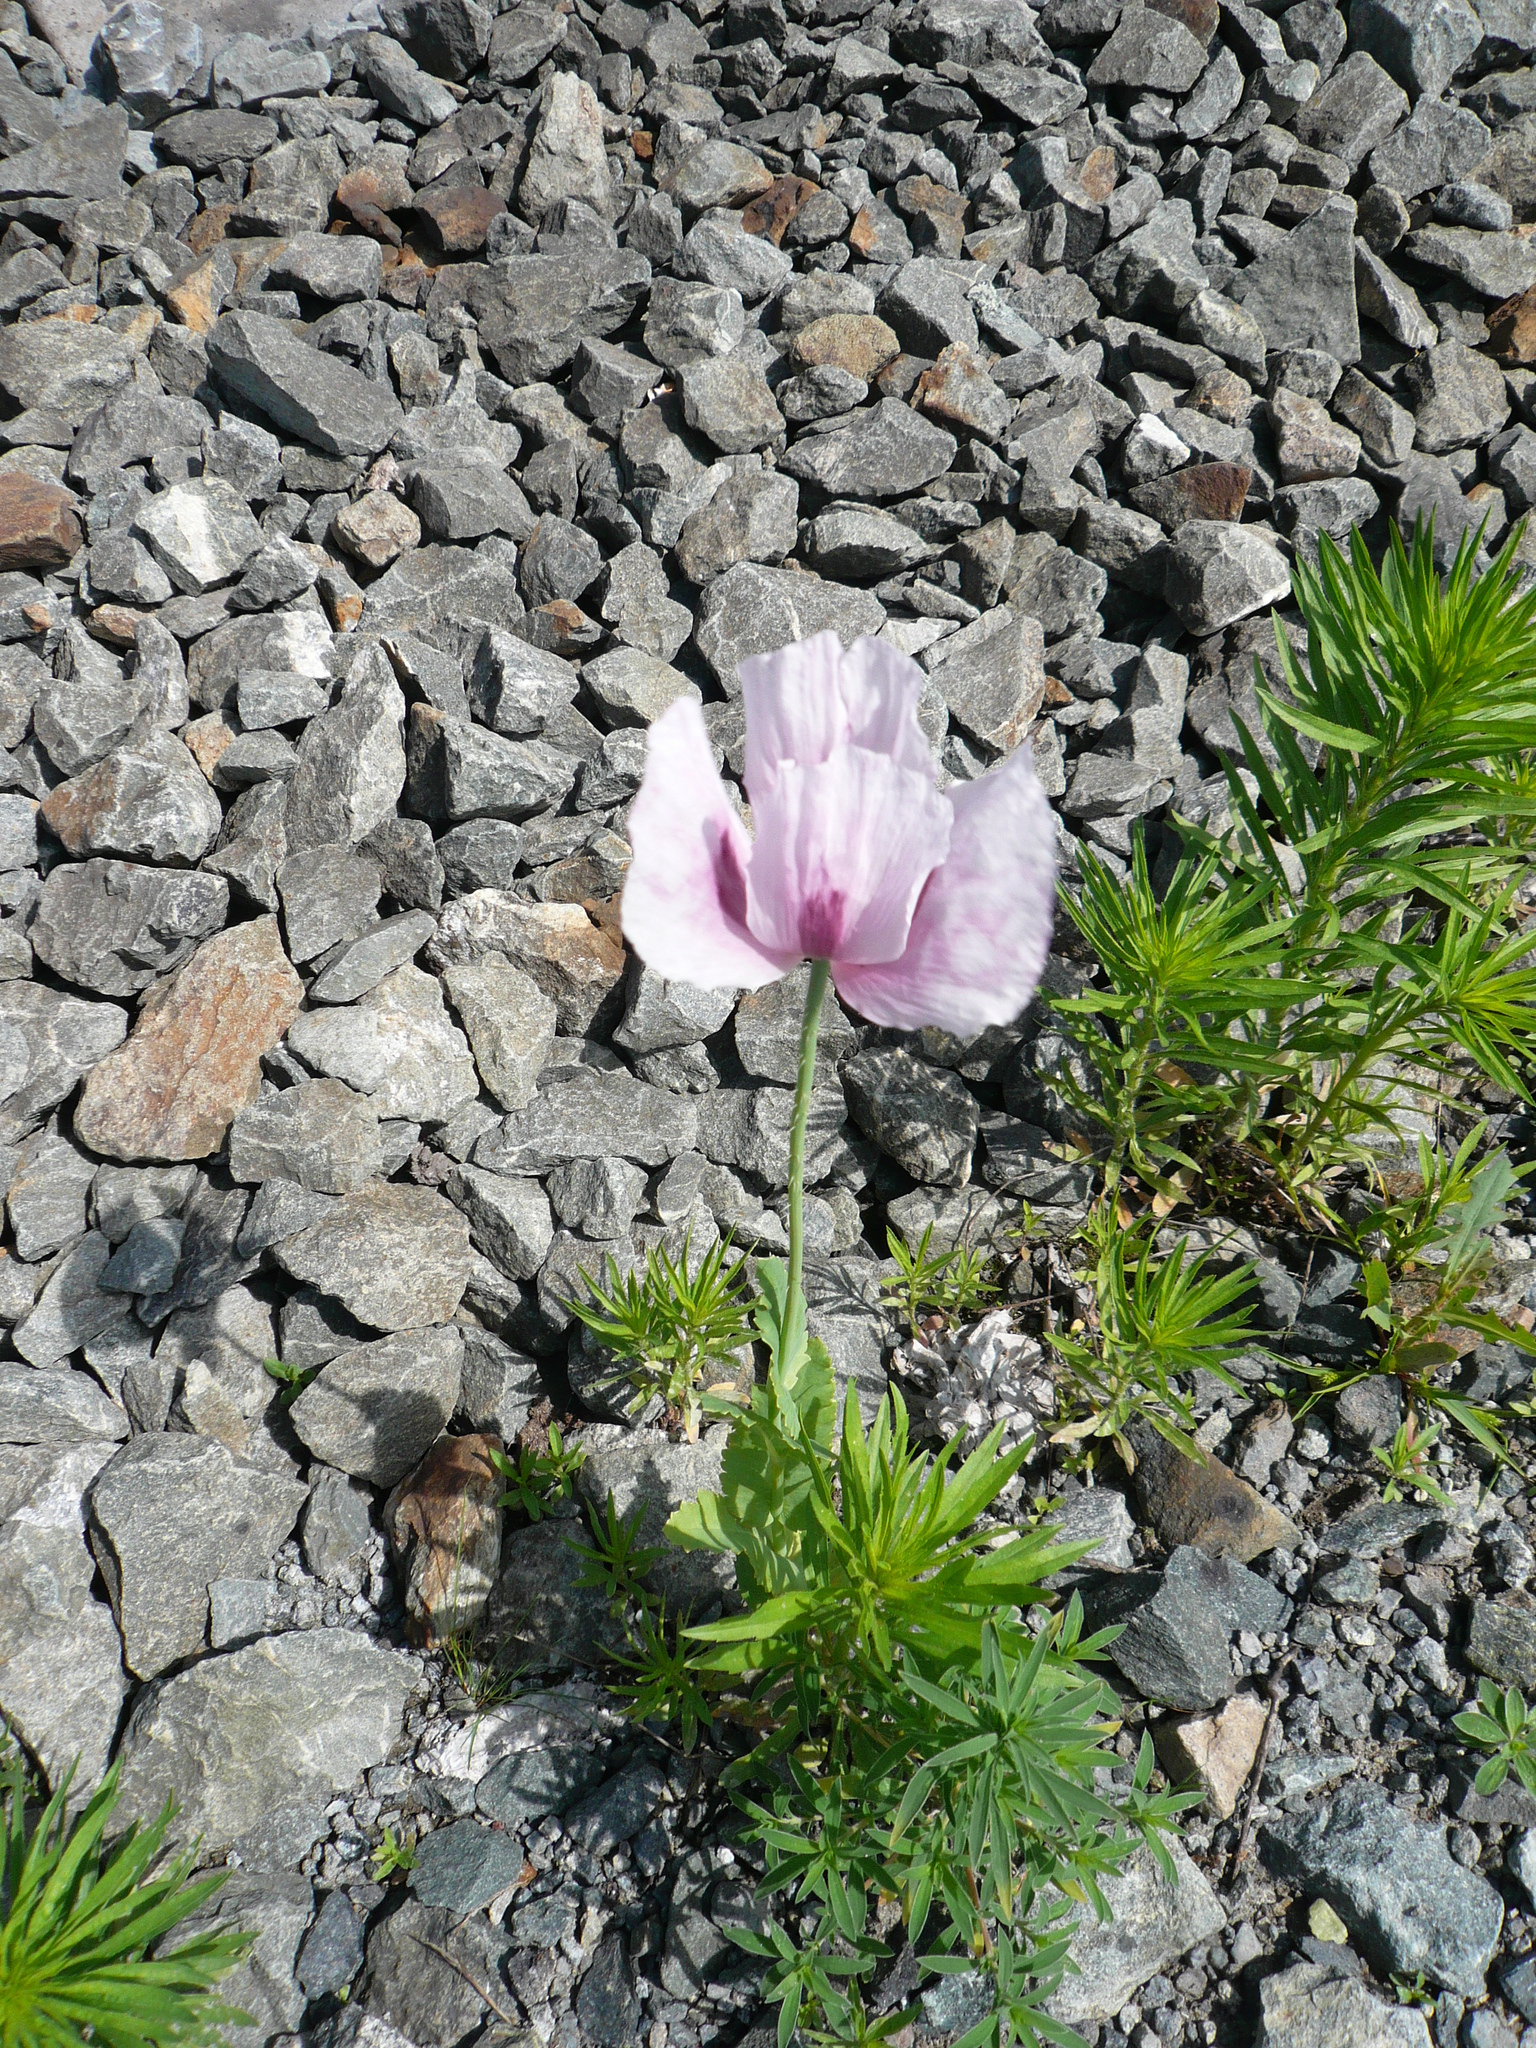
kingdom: Plantae
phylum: Tracheophyta
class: Magnoliopsida
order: Ranunculales
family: Papaveraceae
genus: Papaver
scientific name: Papaver somniferum
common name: Opium poppy
